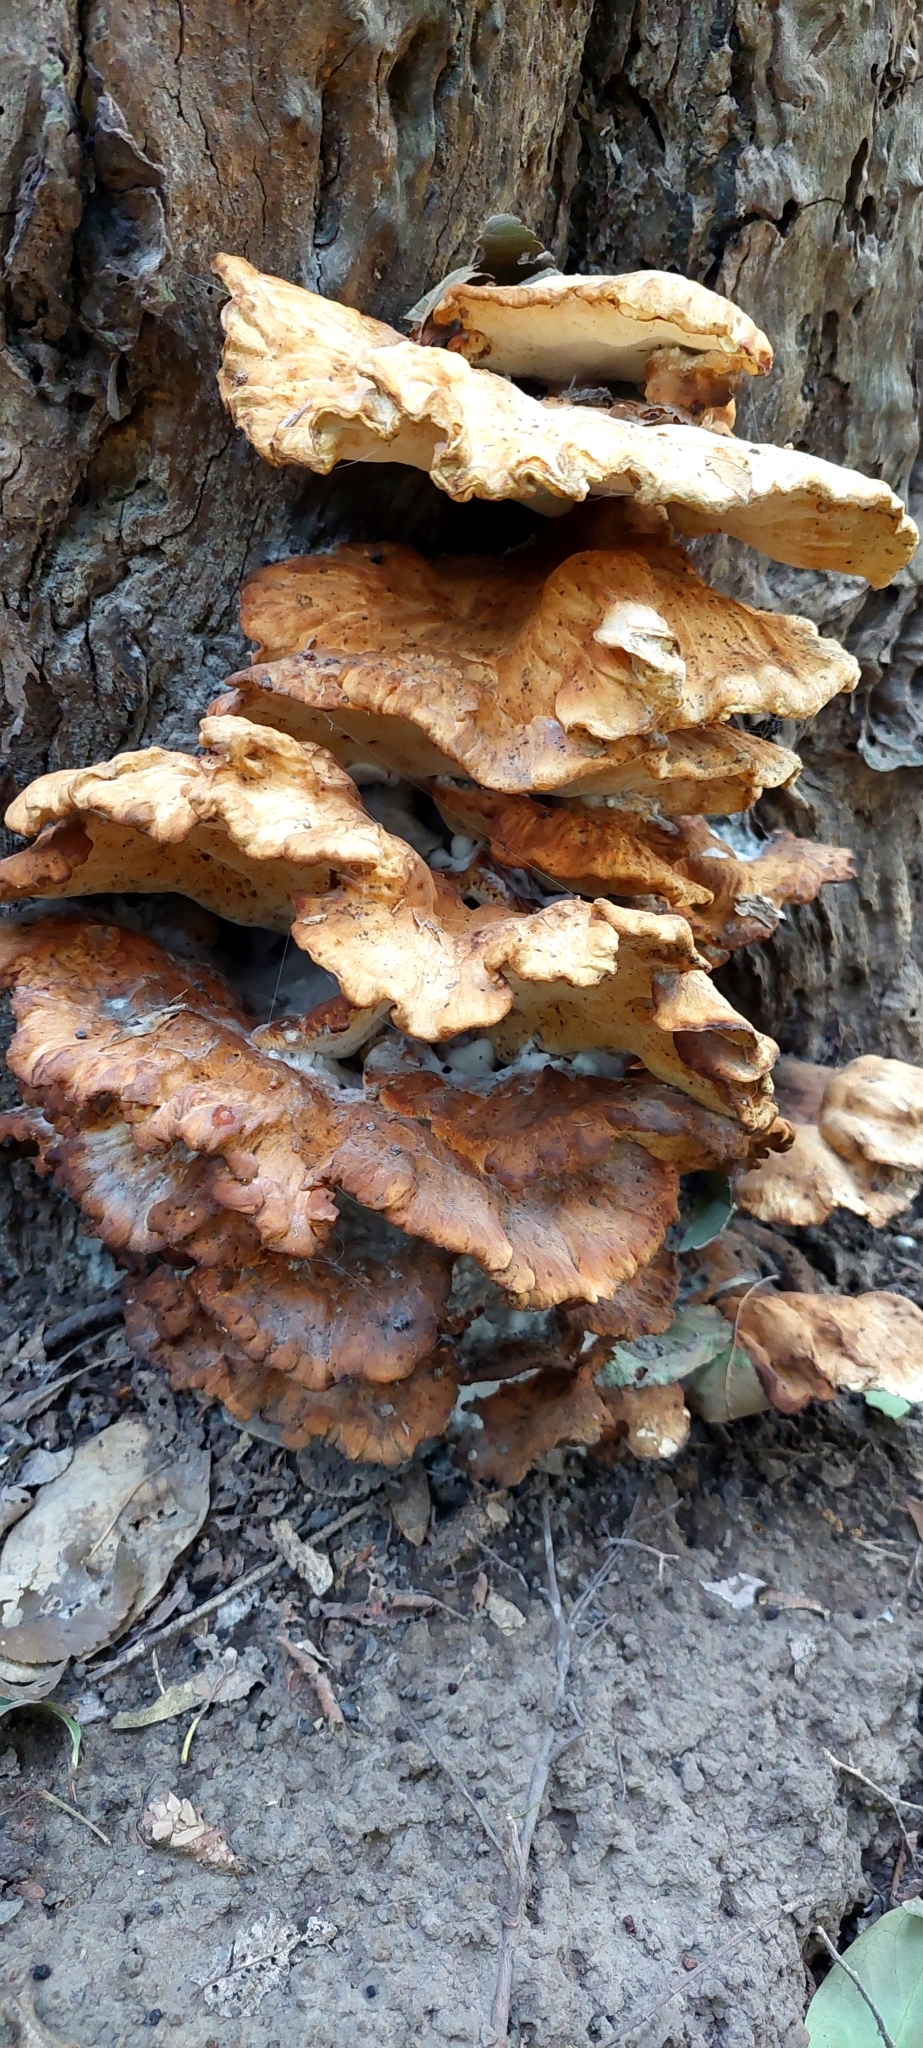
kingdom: Fungi
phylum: Basidiomycota
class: Agaricomycetes
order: Polyporales
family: Laetiporaceae
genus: Laetiporus
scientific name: Laetiporus sulphureus
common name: Chicken of the woods
